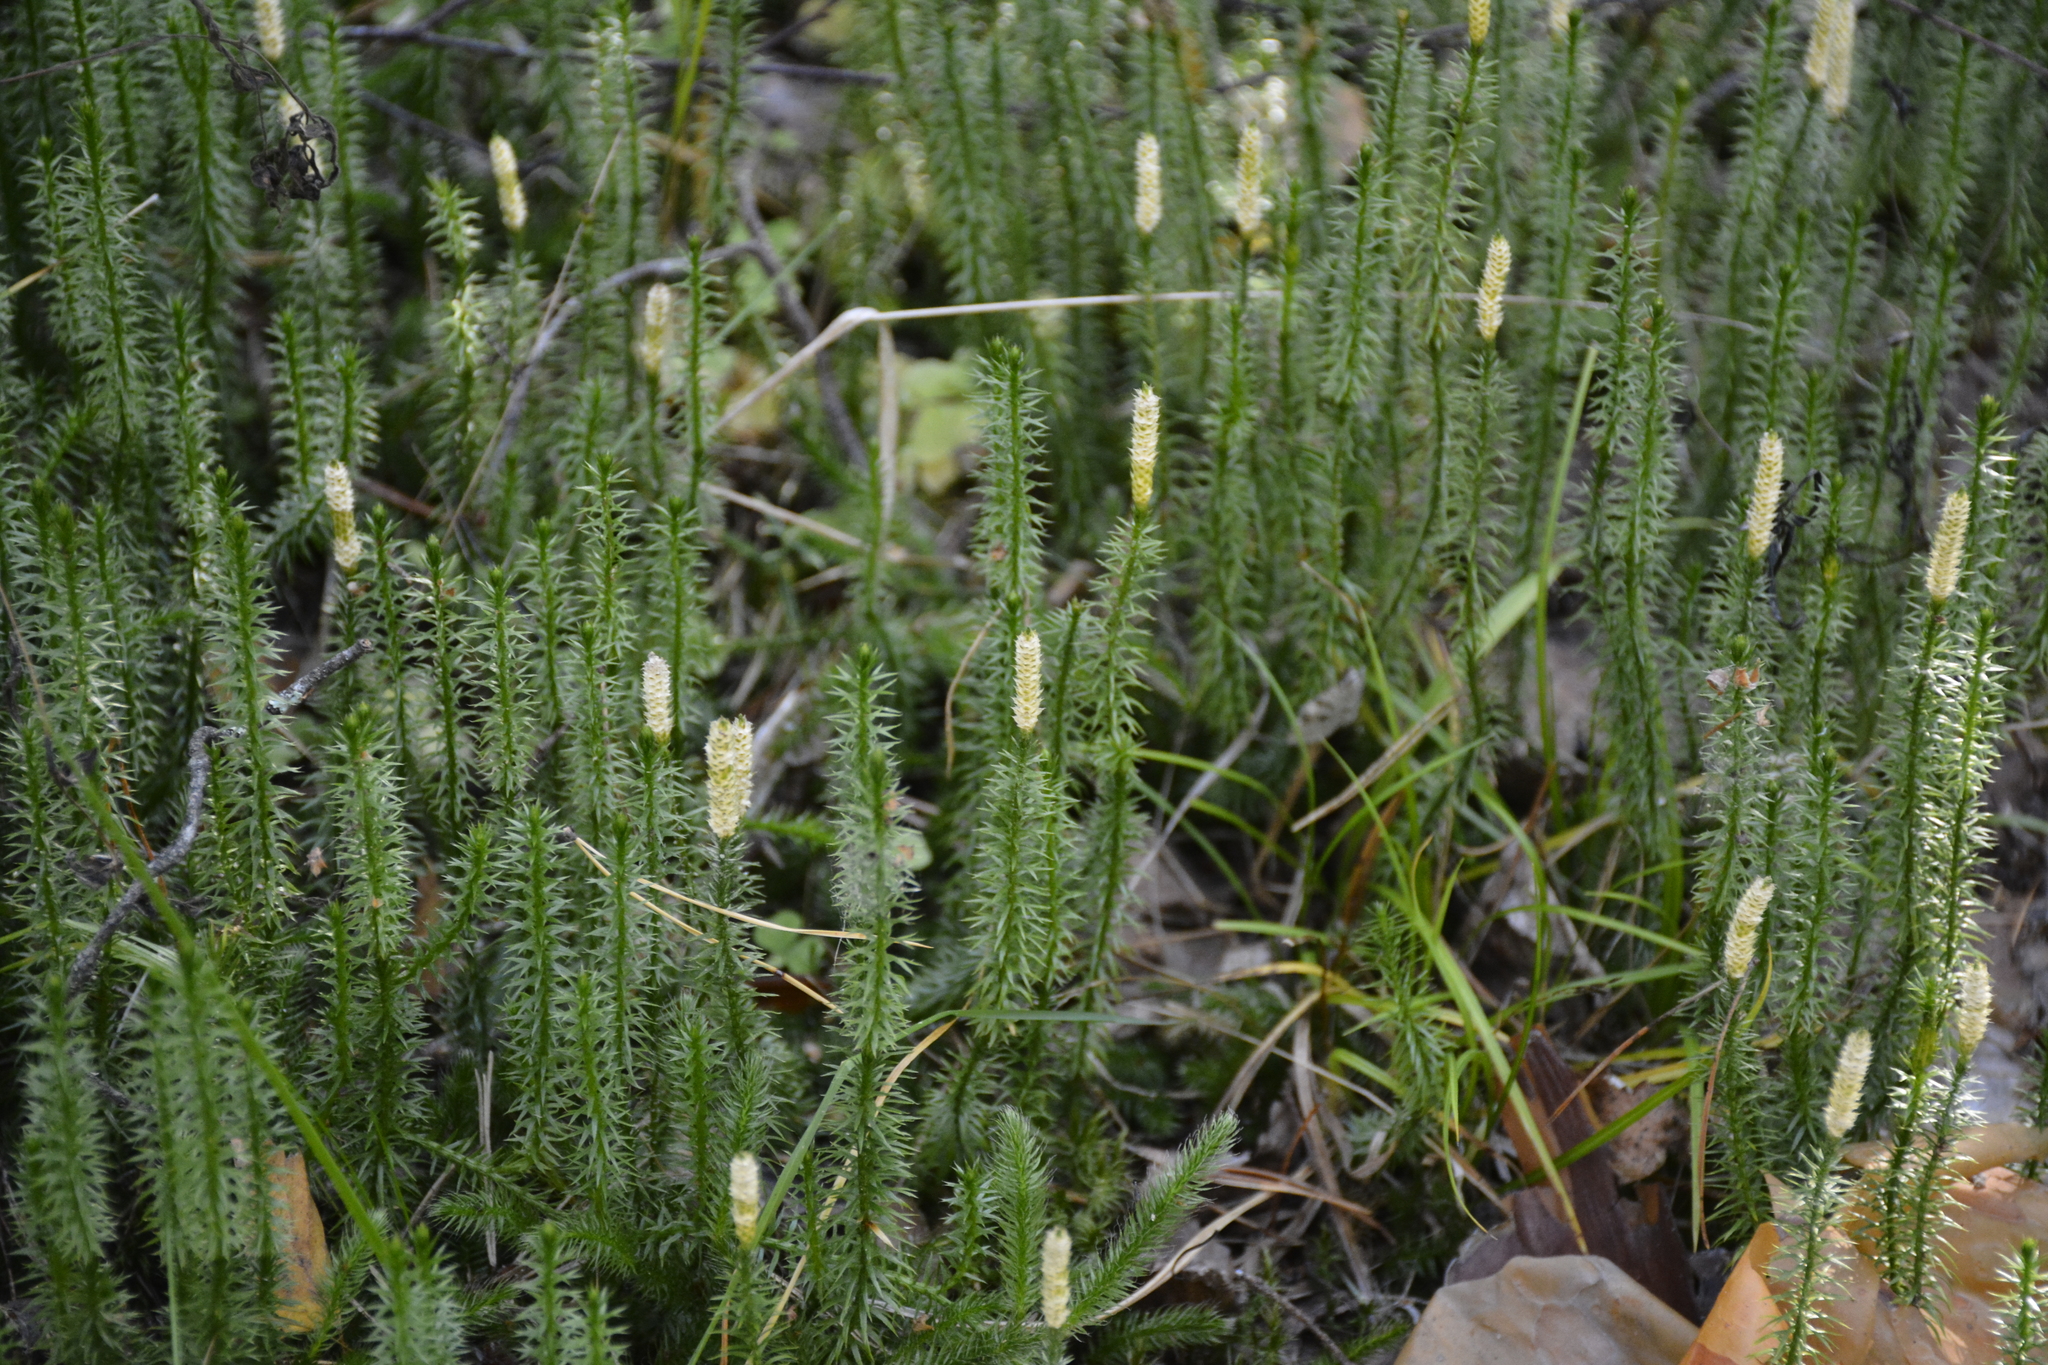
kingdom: Plantae
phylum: Tracheophyta
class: Lycopodiopsida
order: Lycopodiales
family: Lycopodiaceae
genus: Spinulum
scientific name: Spinulum annotinum
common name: Interrupted club-moss
